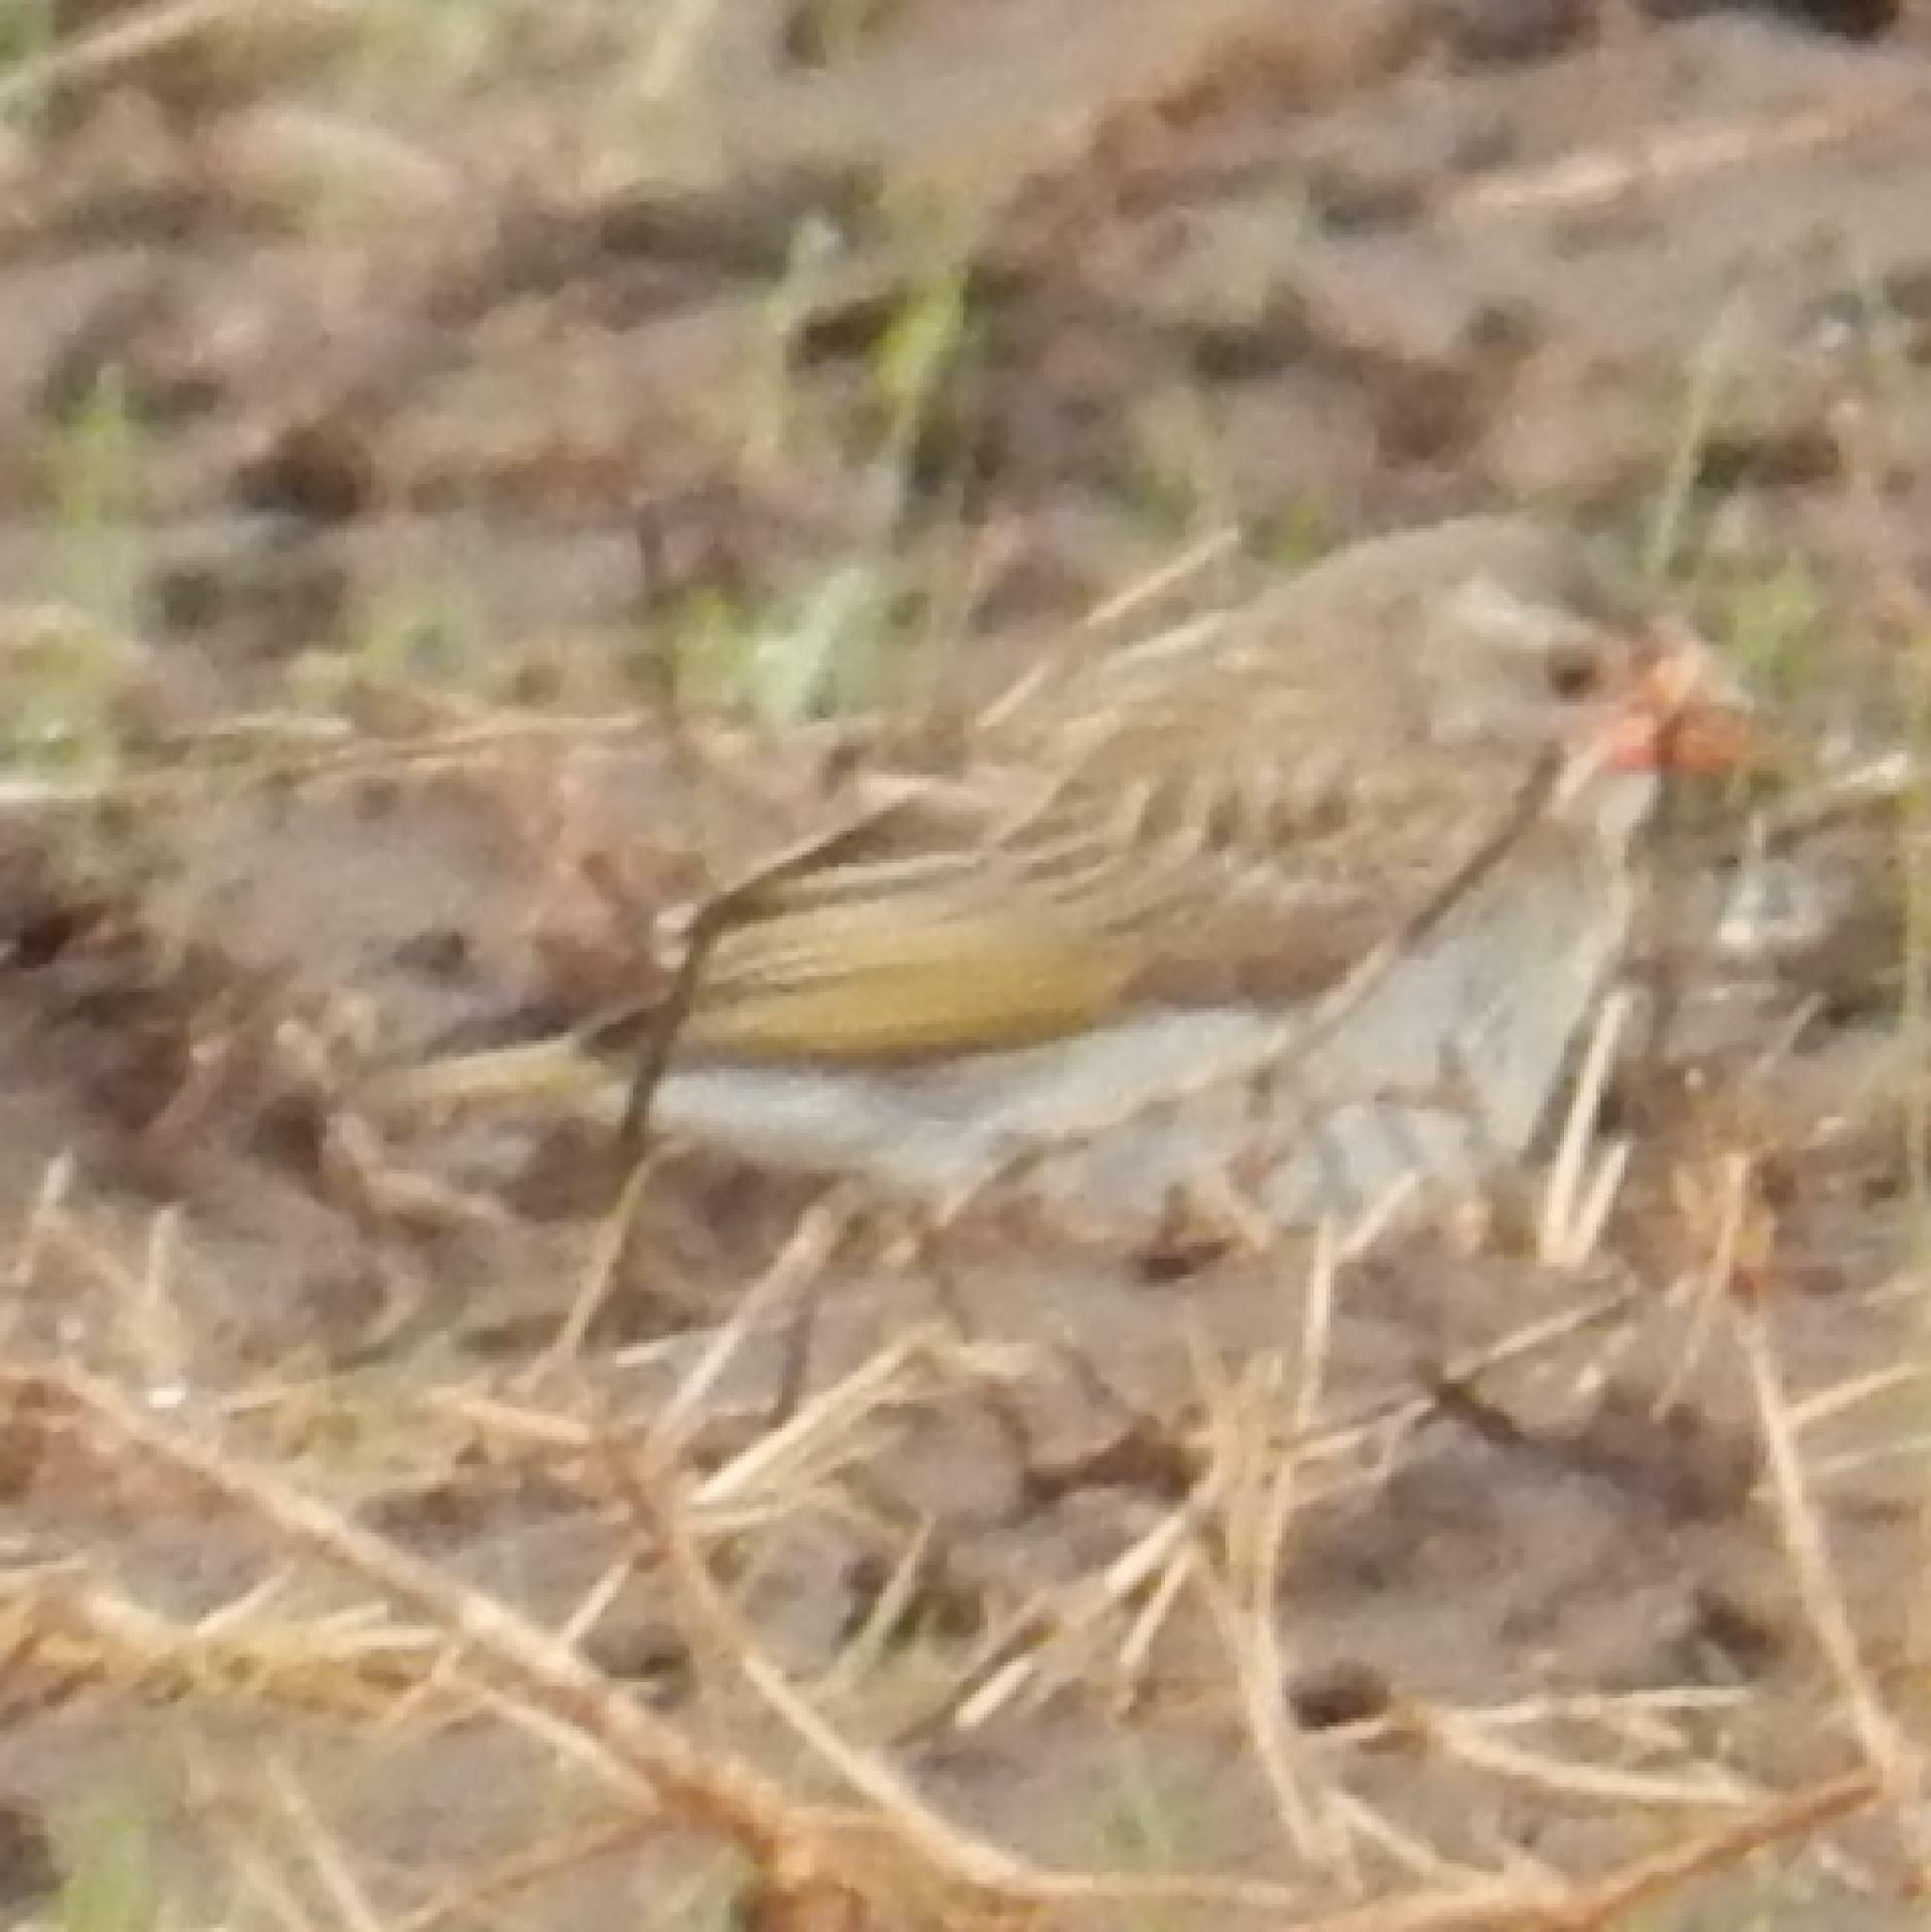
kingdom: Animalia
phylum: Chordata
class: Aves
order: Passeriformes
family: Ploceidae
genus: Quelea
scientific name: Quelea quelea
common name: Red-billed quelea
